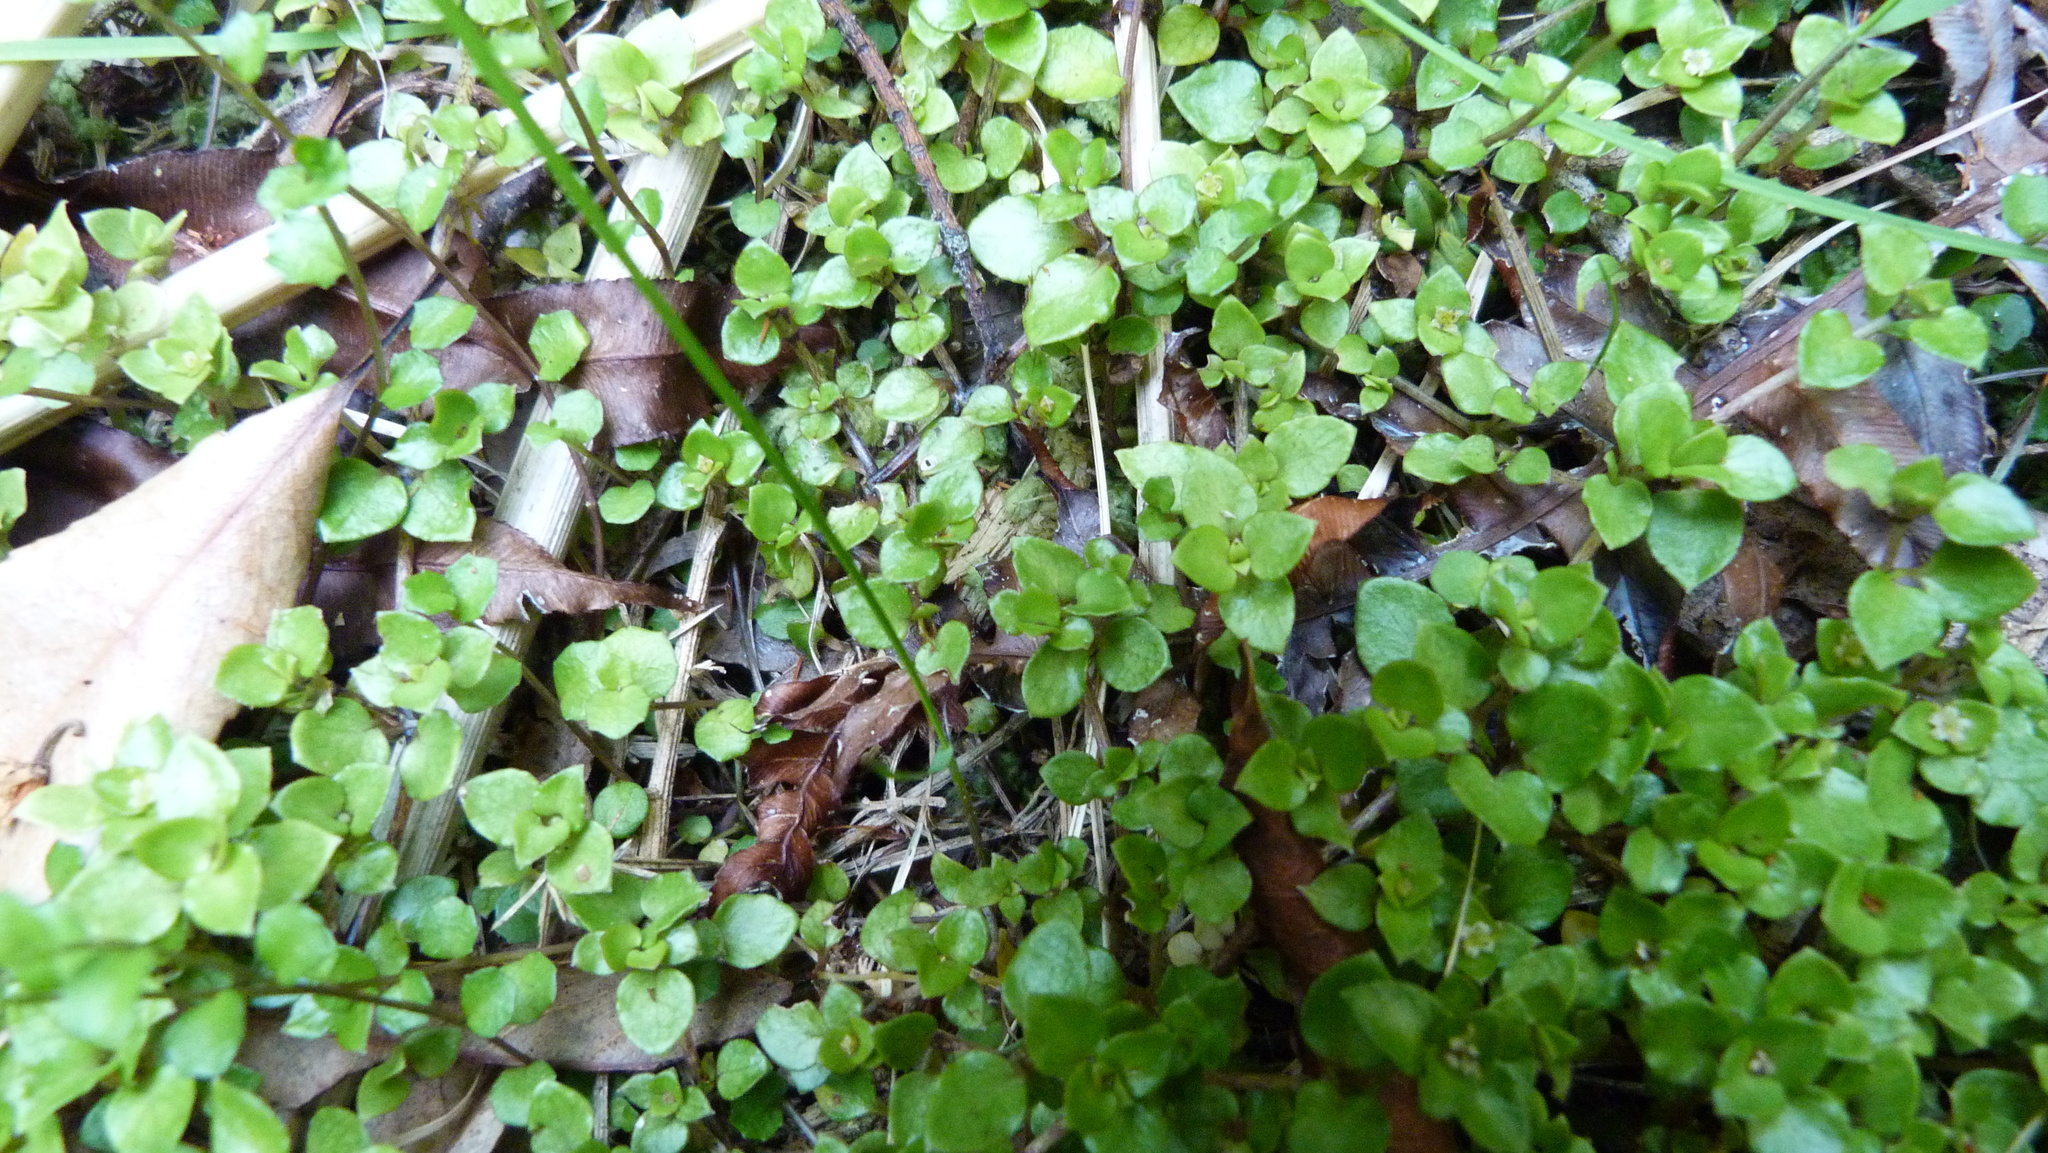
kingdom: Plantae
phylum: Tracheophyta
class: Magnoliopsida
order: Gentianales
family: Rubiaceae
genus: Nertera
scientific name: Nertera granadensis
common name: Beadplant
